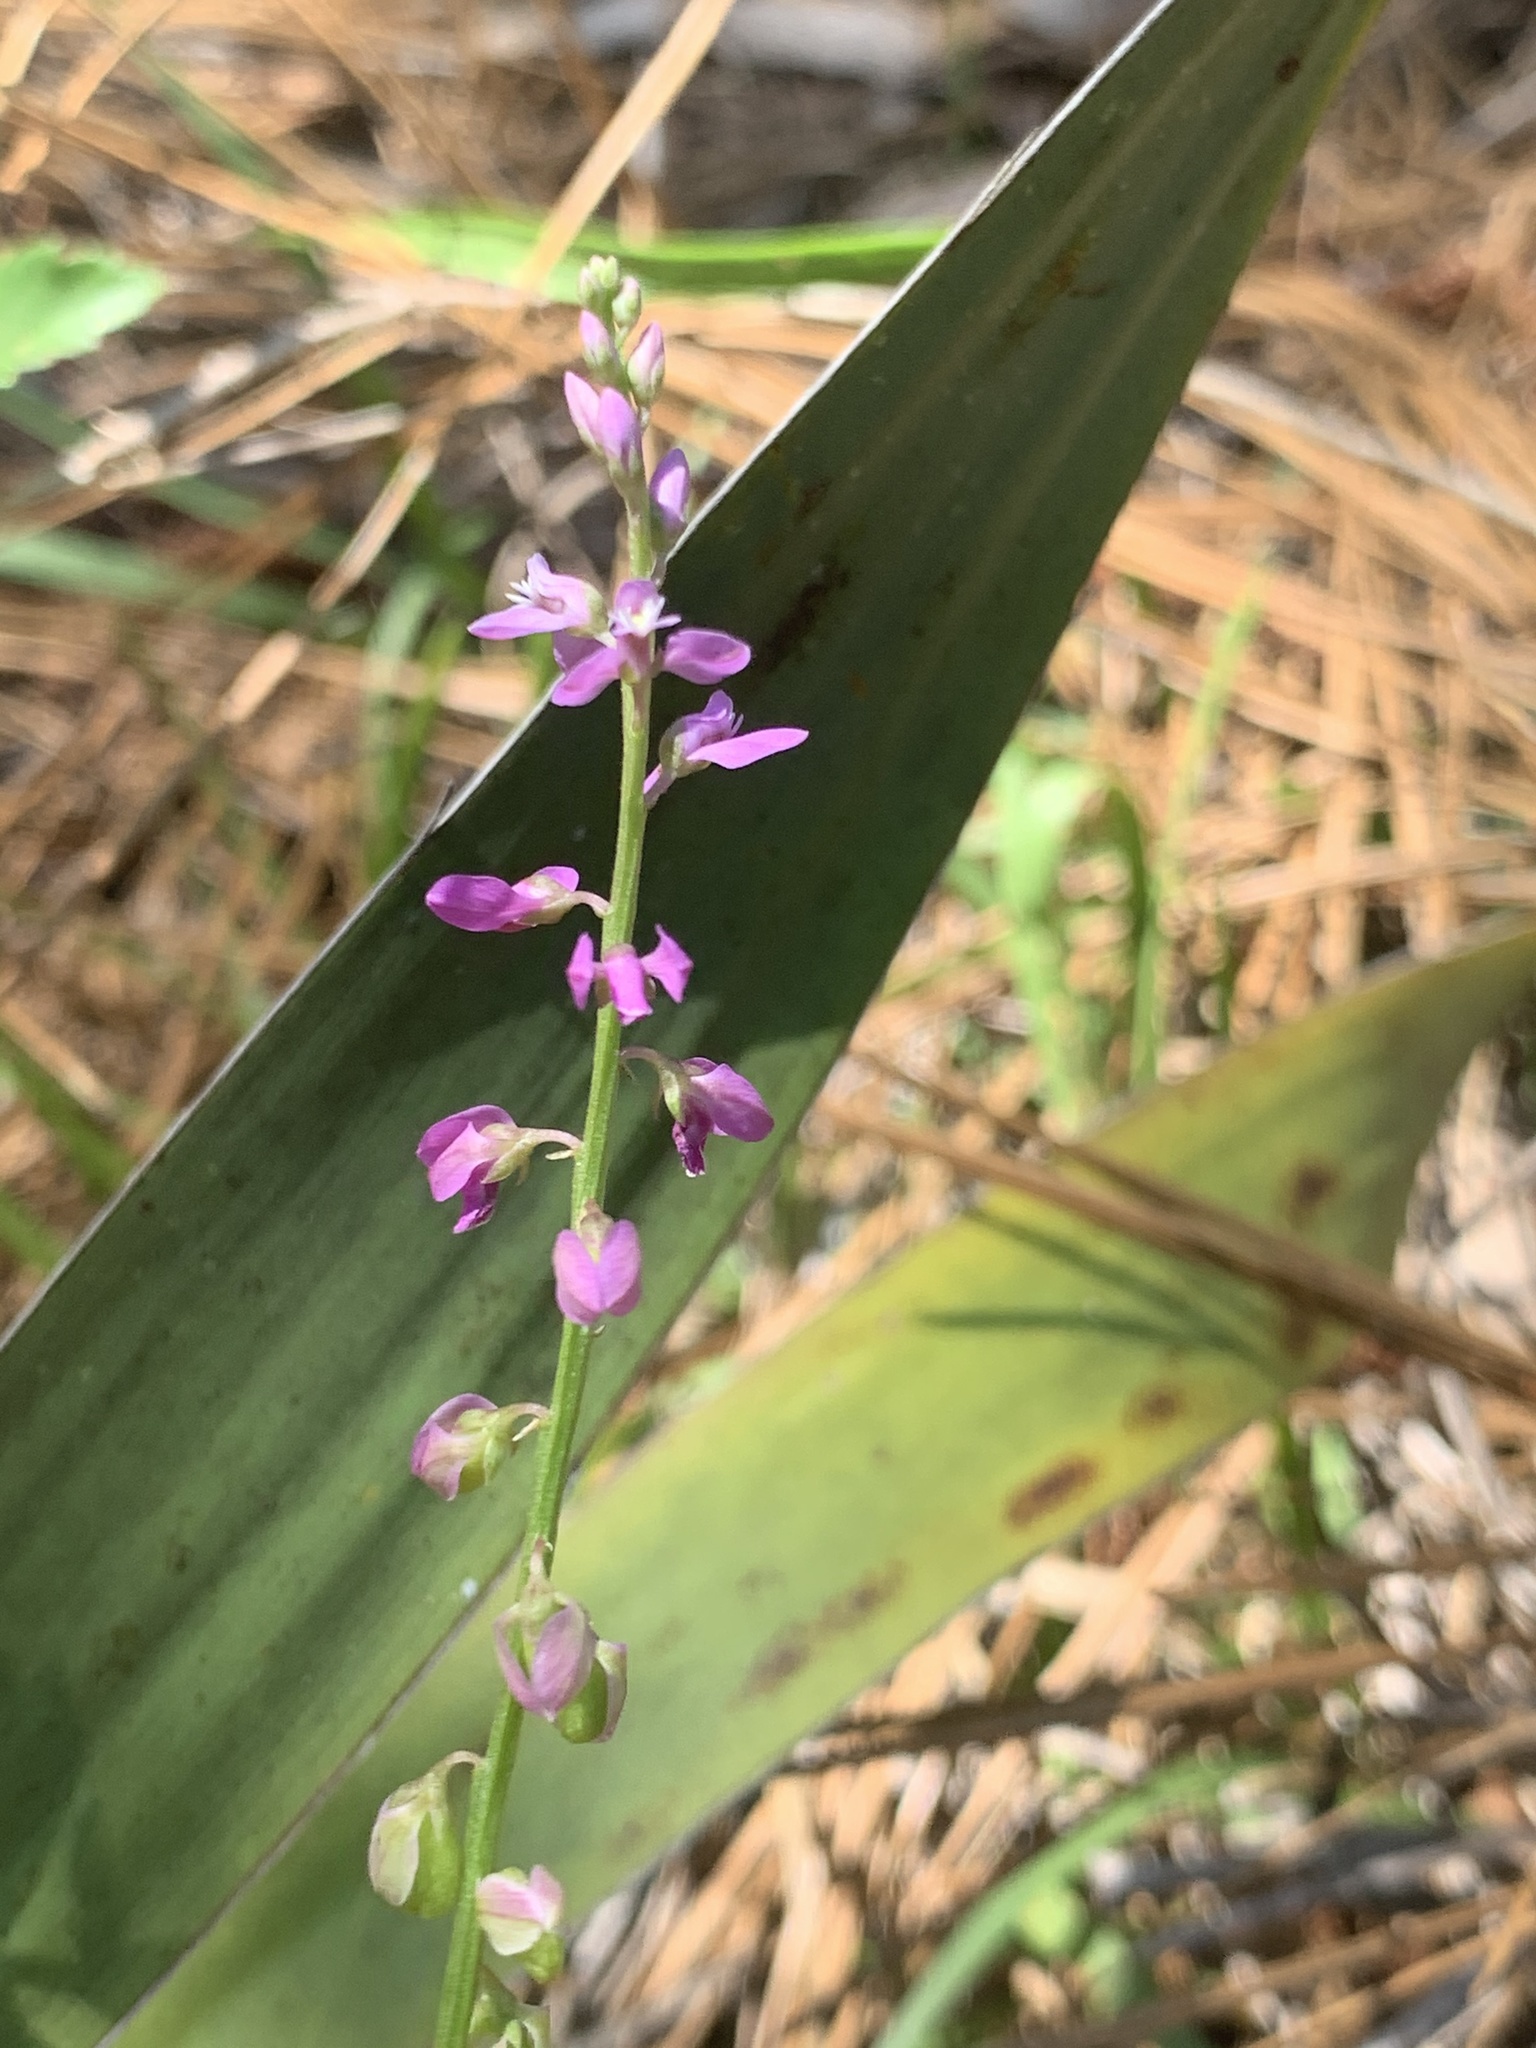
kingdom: Plantae
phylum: Tracheophyta
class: Magnoliopsida
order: Fabales
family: Polygalaceae
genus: Asemeia
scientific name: Asemeia grandiflora
